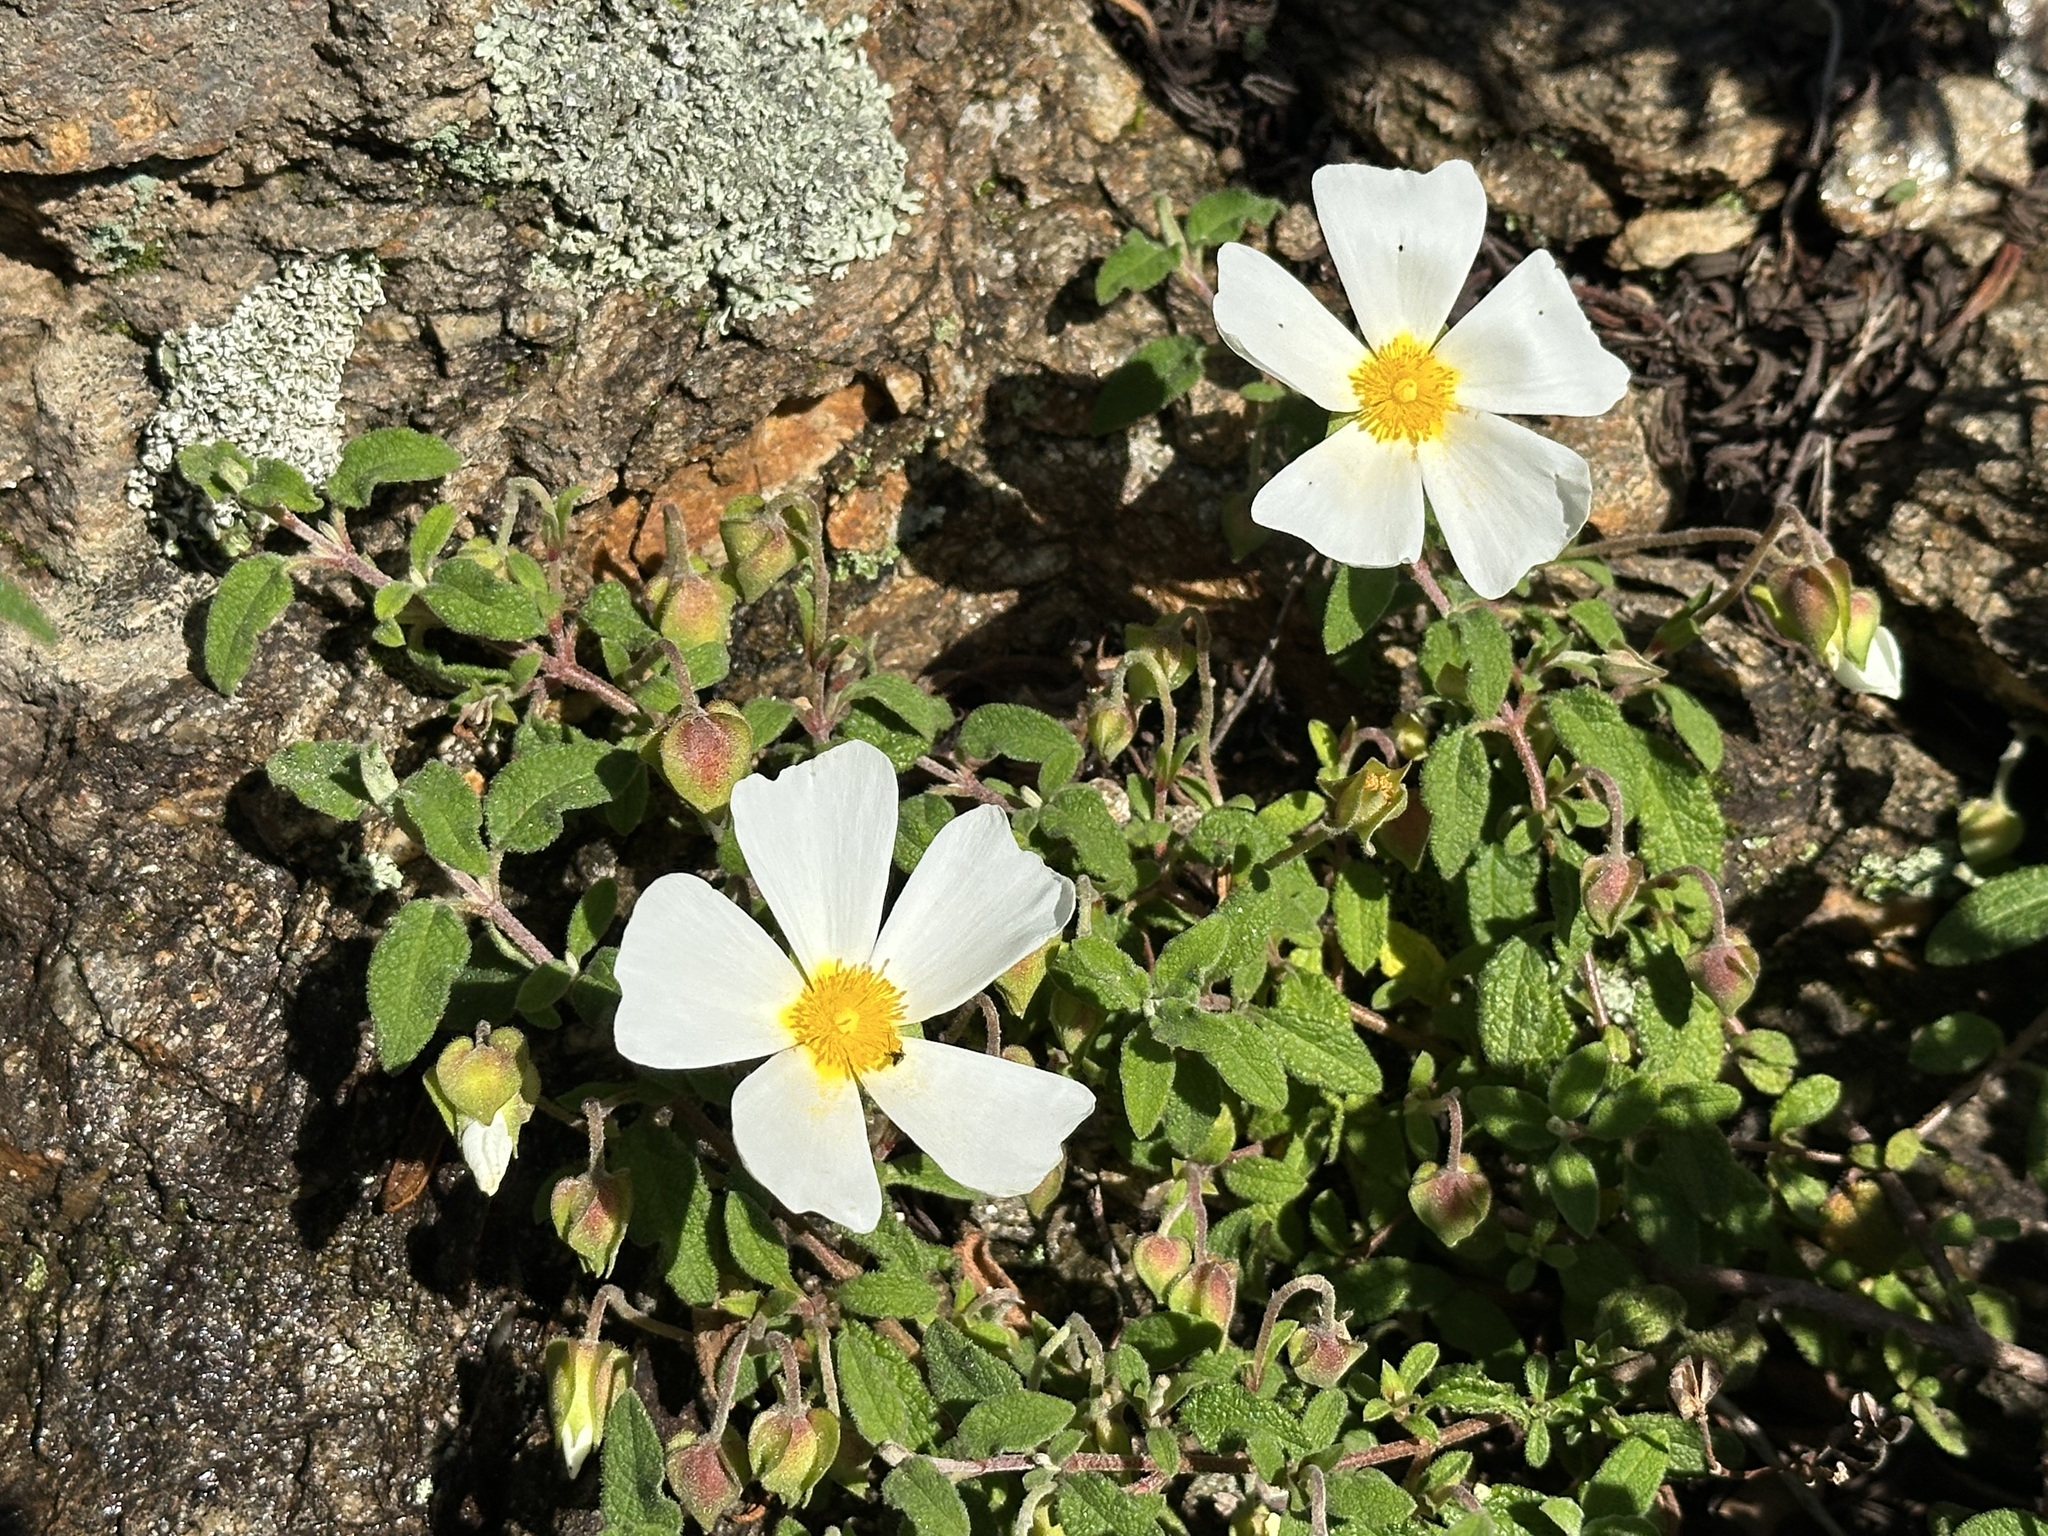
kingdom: Plantae
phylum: Tracheophyta
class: Magnoliopsida
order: Malvales
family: Cistaceae
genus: Cistus
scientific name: Cistus salviifolius
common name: Salvia cistus
